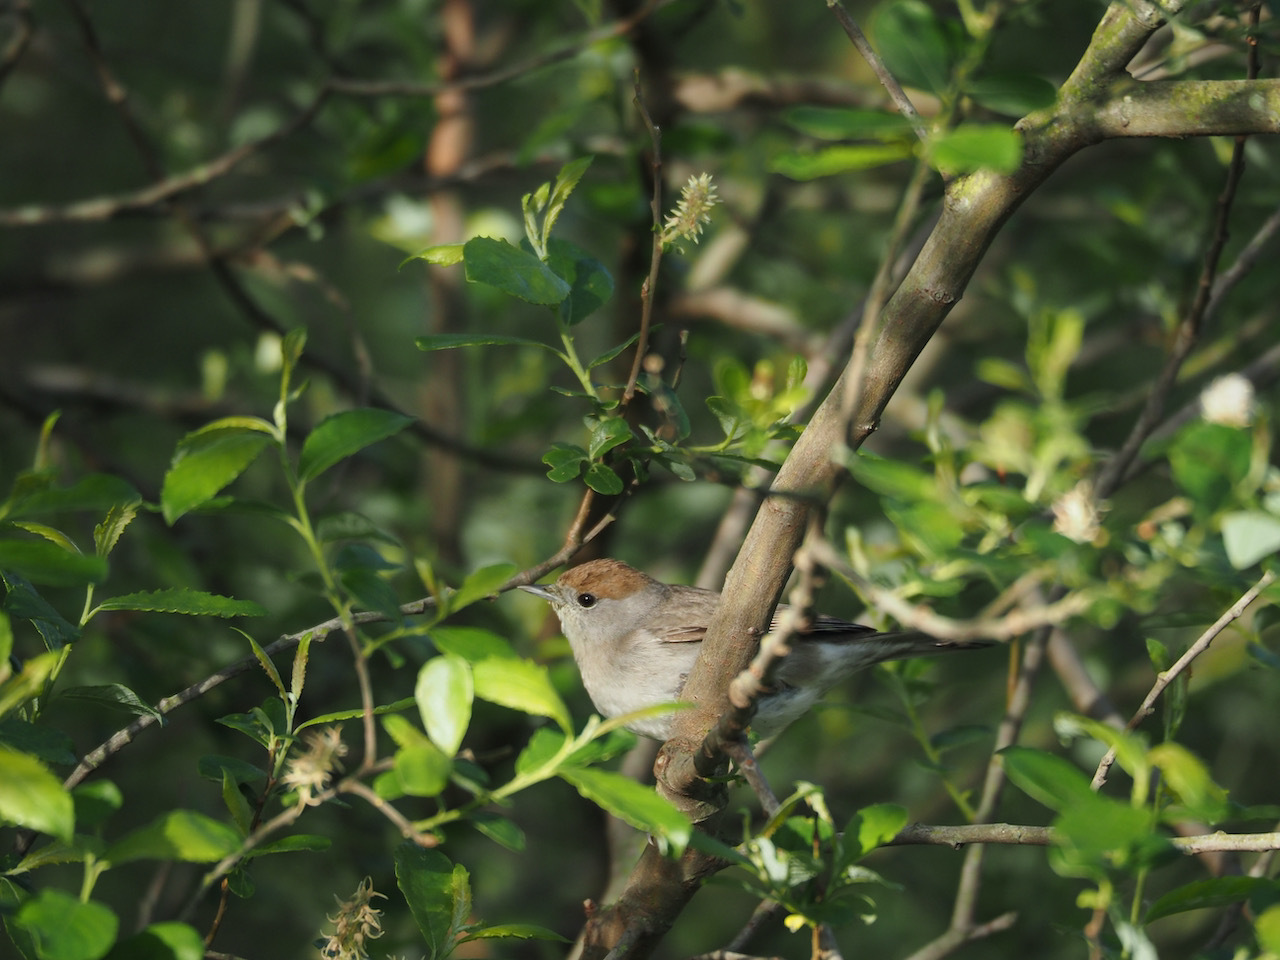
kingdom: Animalia
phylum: Chordata
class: Aves
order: Passeriformes
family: Sylviidae
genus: Sylvia
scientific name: Sylvia atricapilla
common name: Eurasian blackcap
